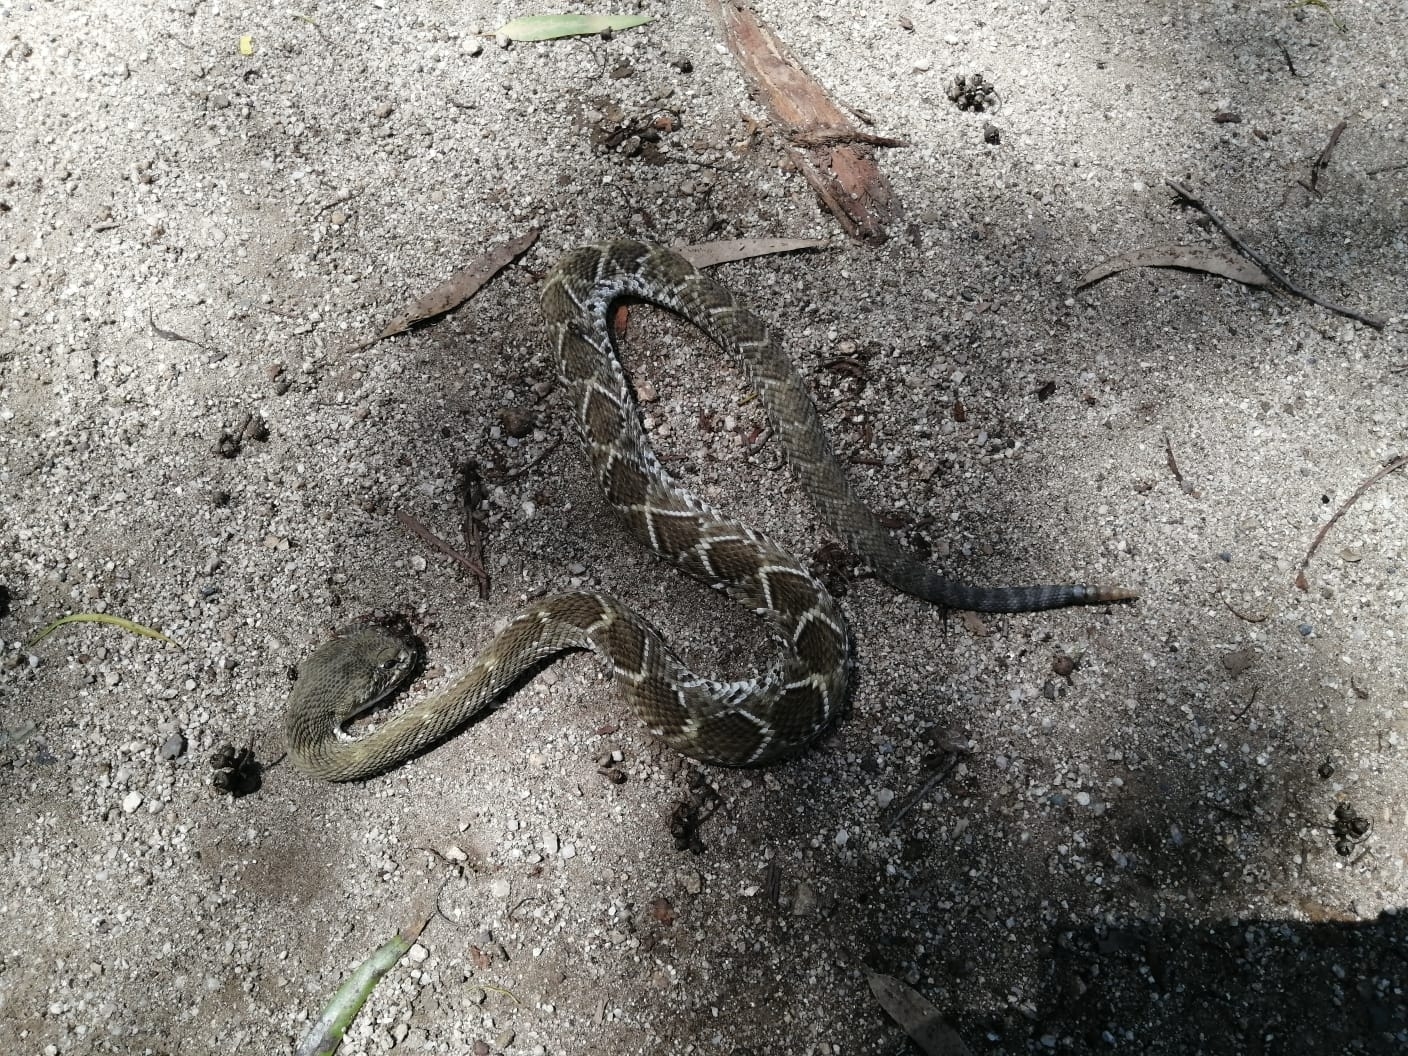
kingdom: Animalia
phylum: Chordata
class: Squamata
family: Viperidae
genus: Crotalus
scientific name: Crotalus basiliscus
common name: Basilisk rattlesnake
